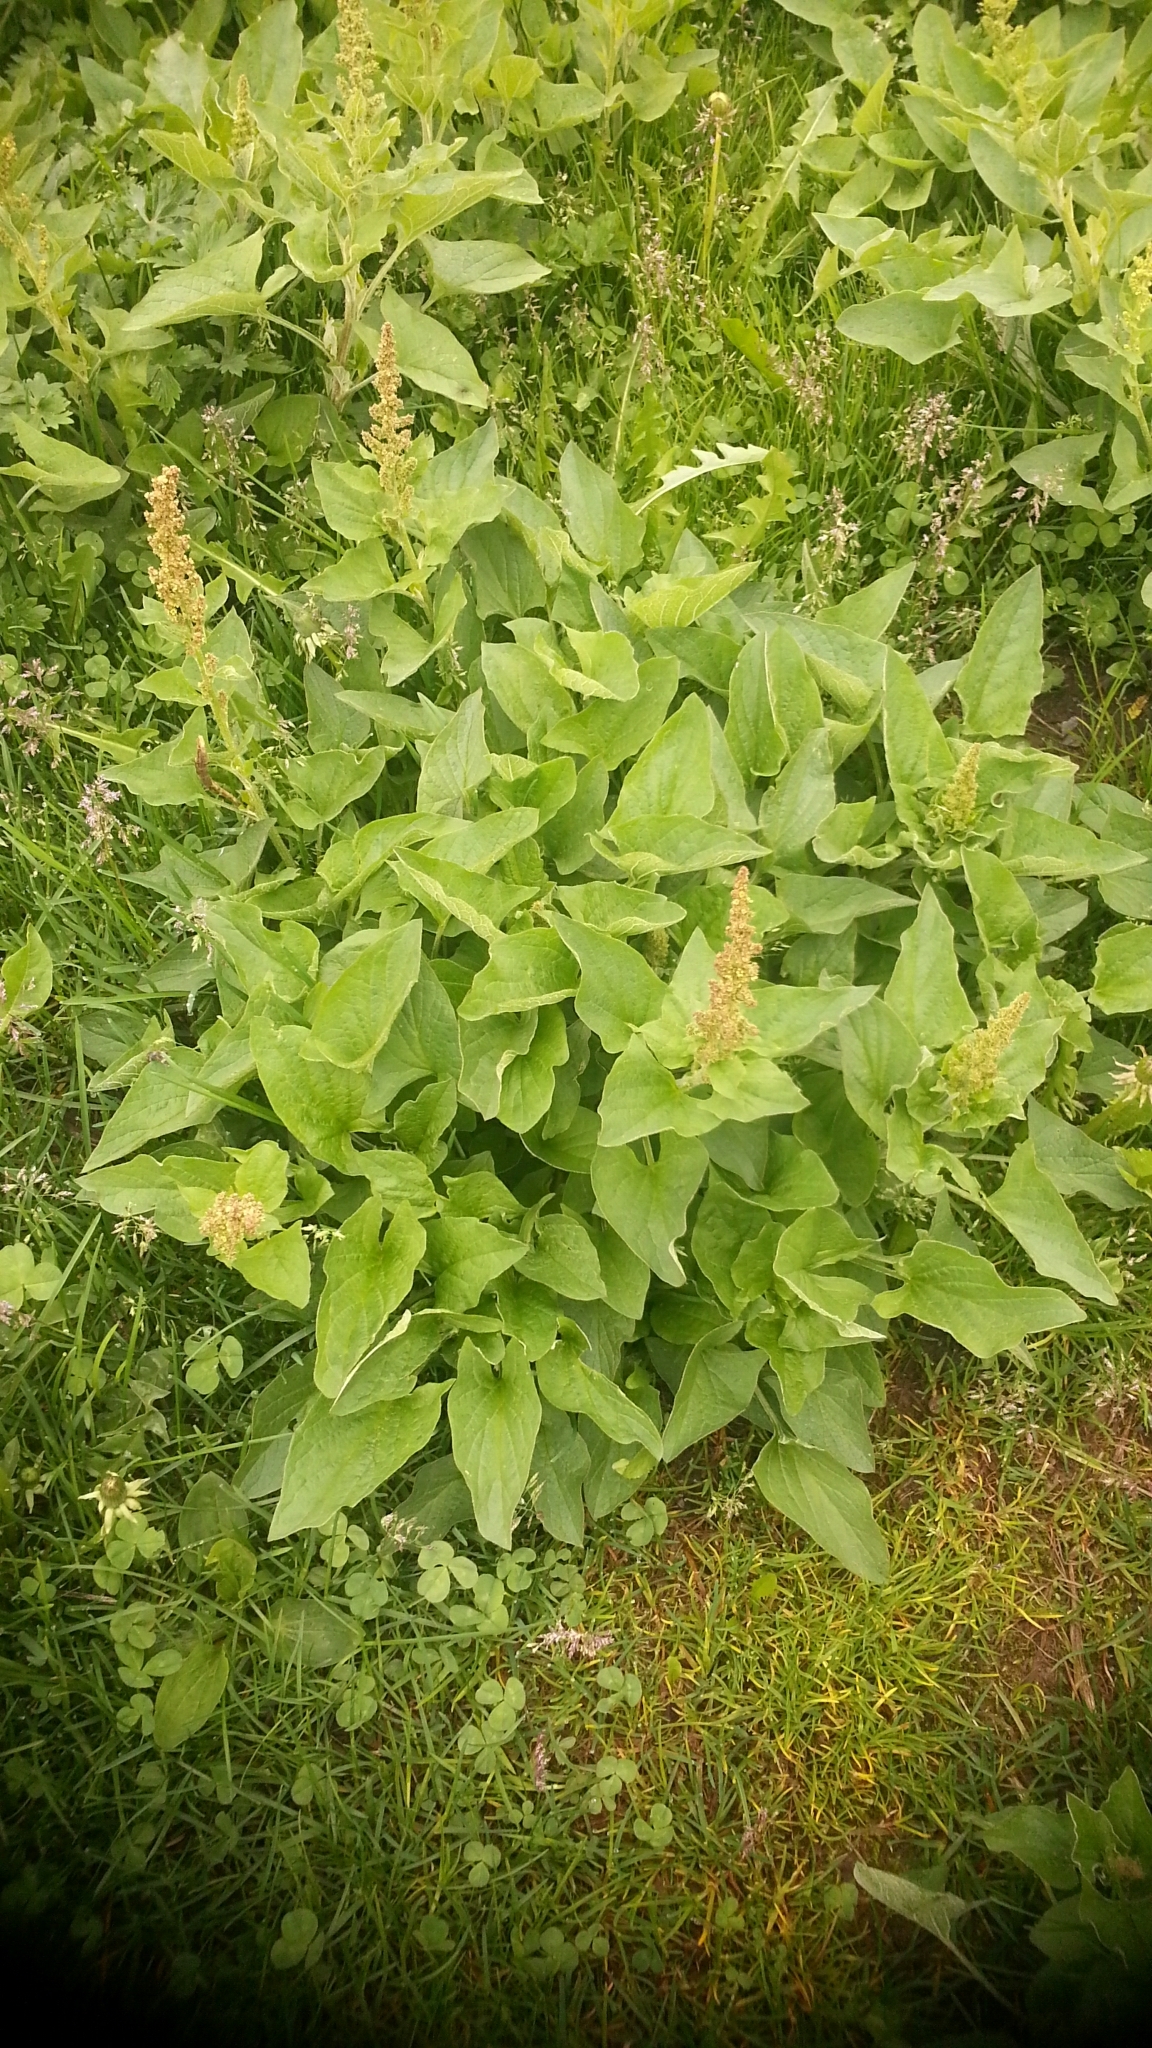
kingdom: Plantae
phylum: Tracheophyta
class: Magnoliopsida
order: Caryophyllales
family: Amaranthaceae
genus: Blitum
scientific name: Blitum bonus-henricus
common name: Good king henry
